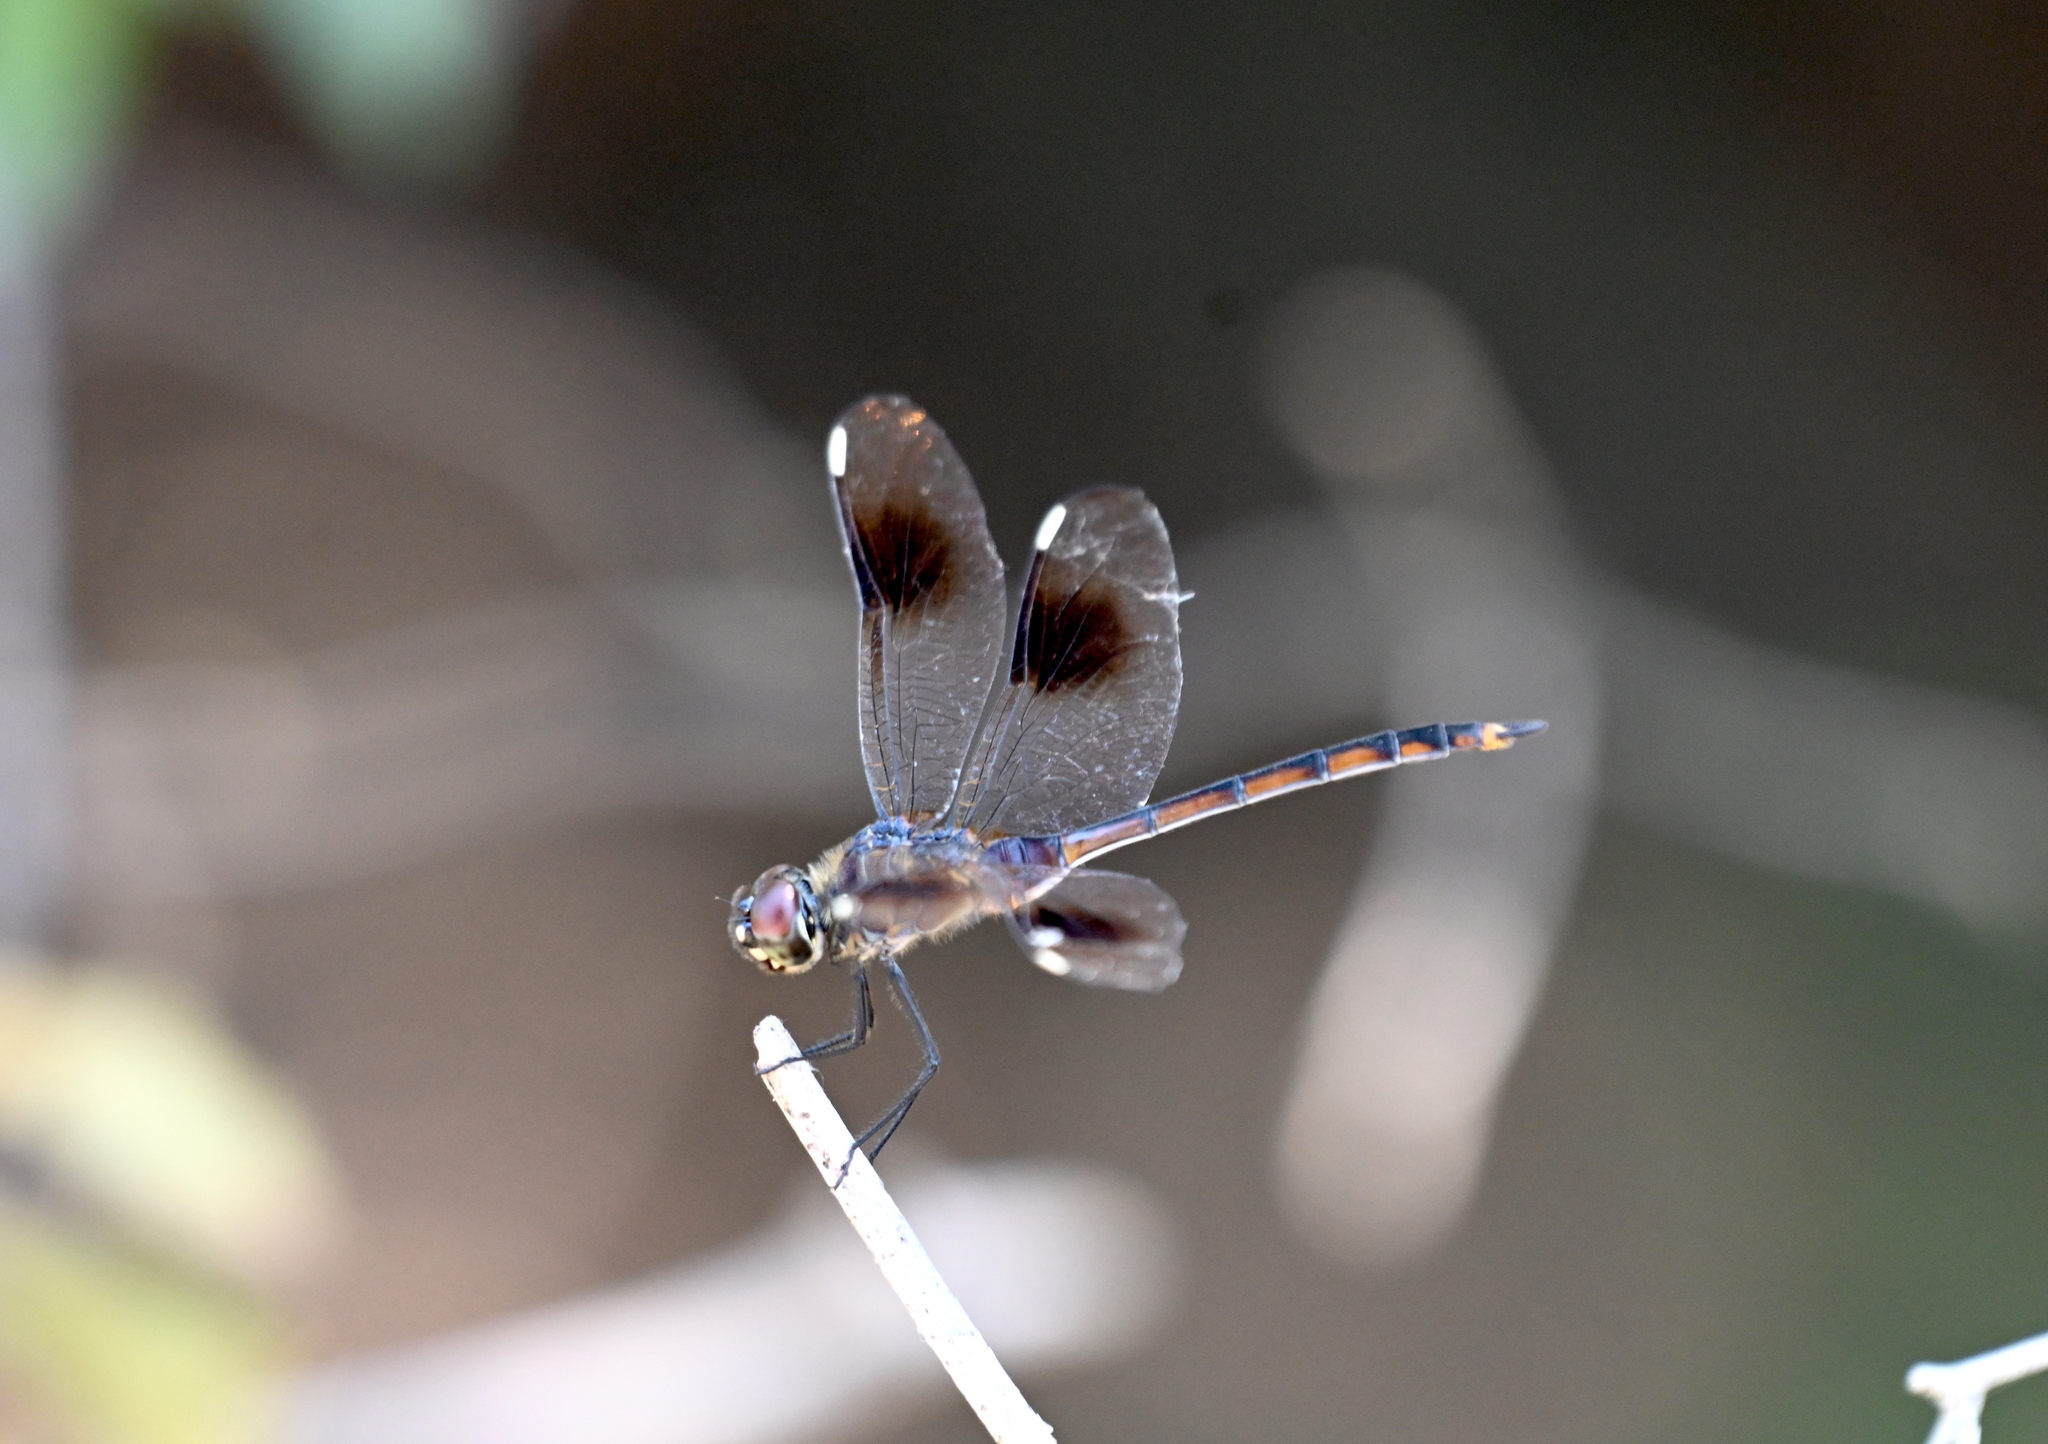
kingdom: Animalia
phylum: Arthropoda
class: Insecta
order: Odonata
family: Libellulidae
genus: Brachymesia
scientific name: Brachymesia gravida
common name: Four-spotted pennant
